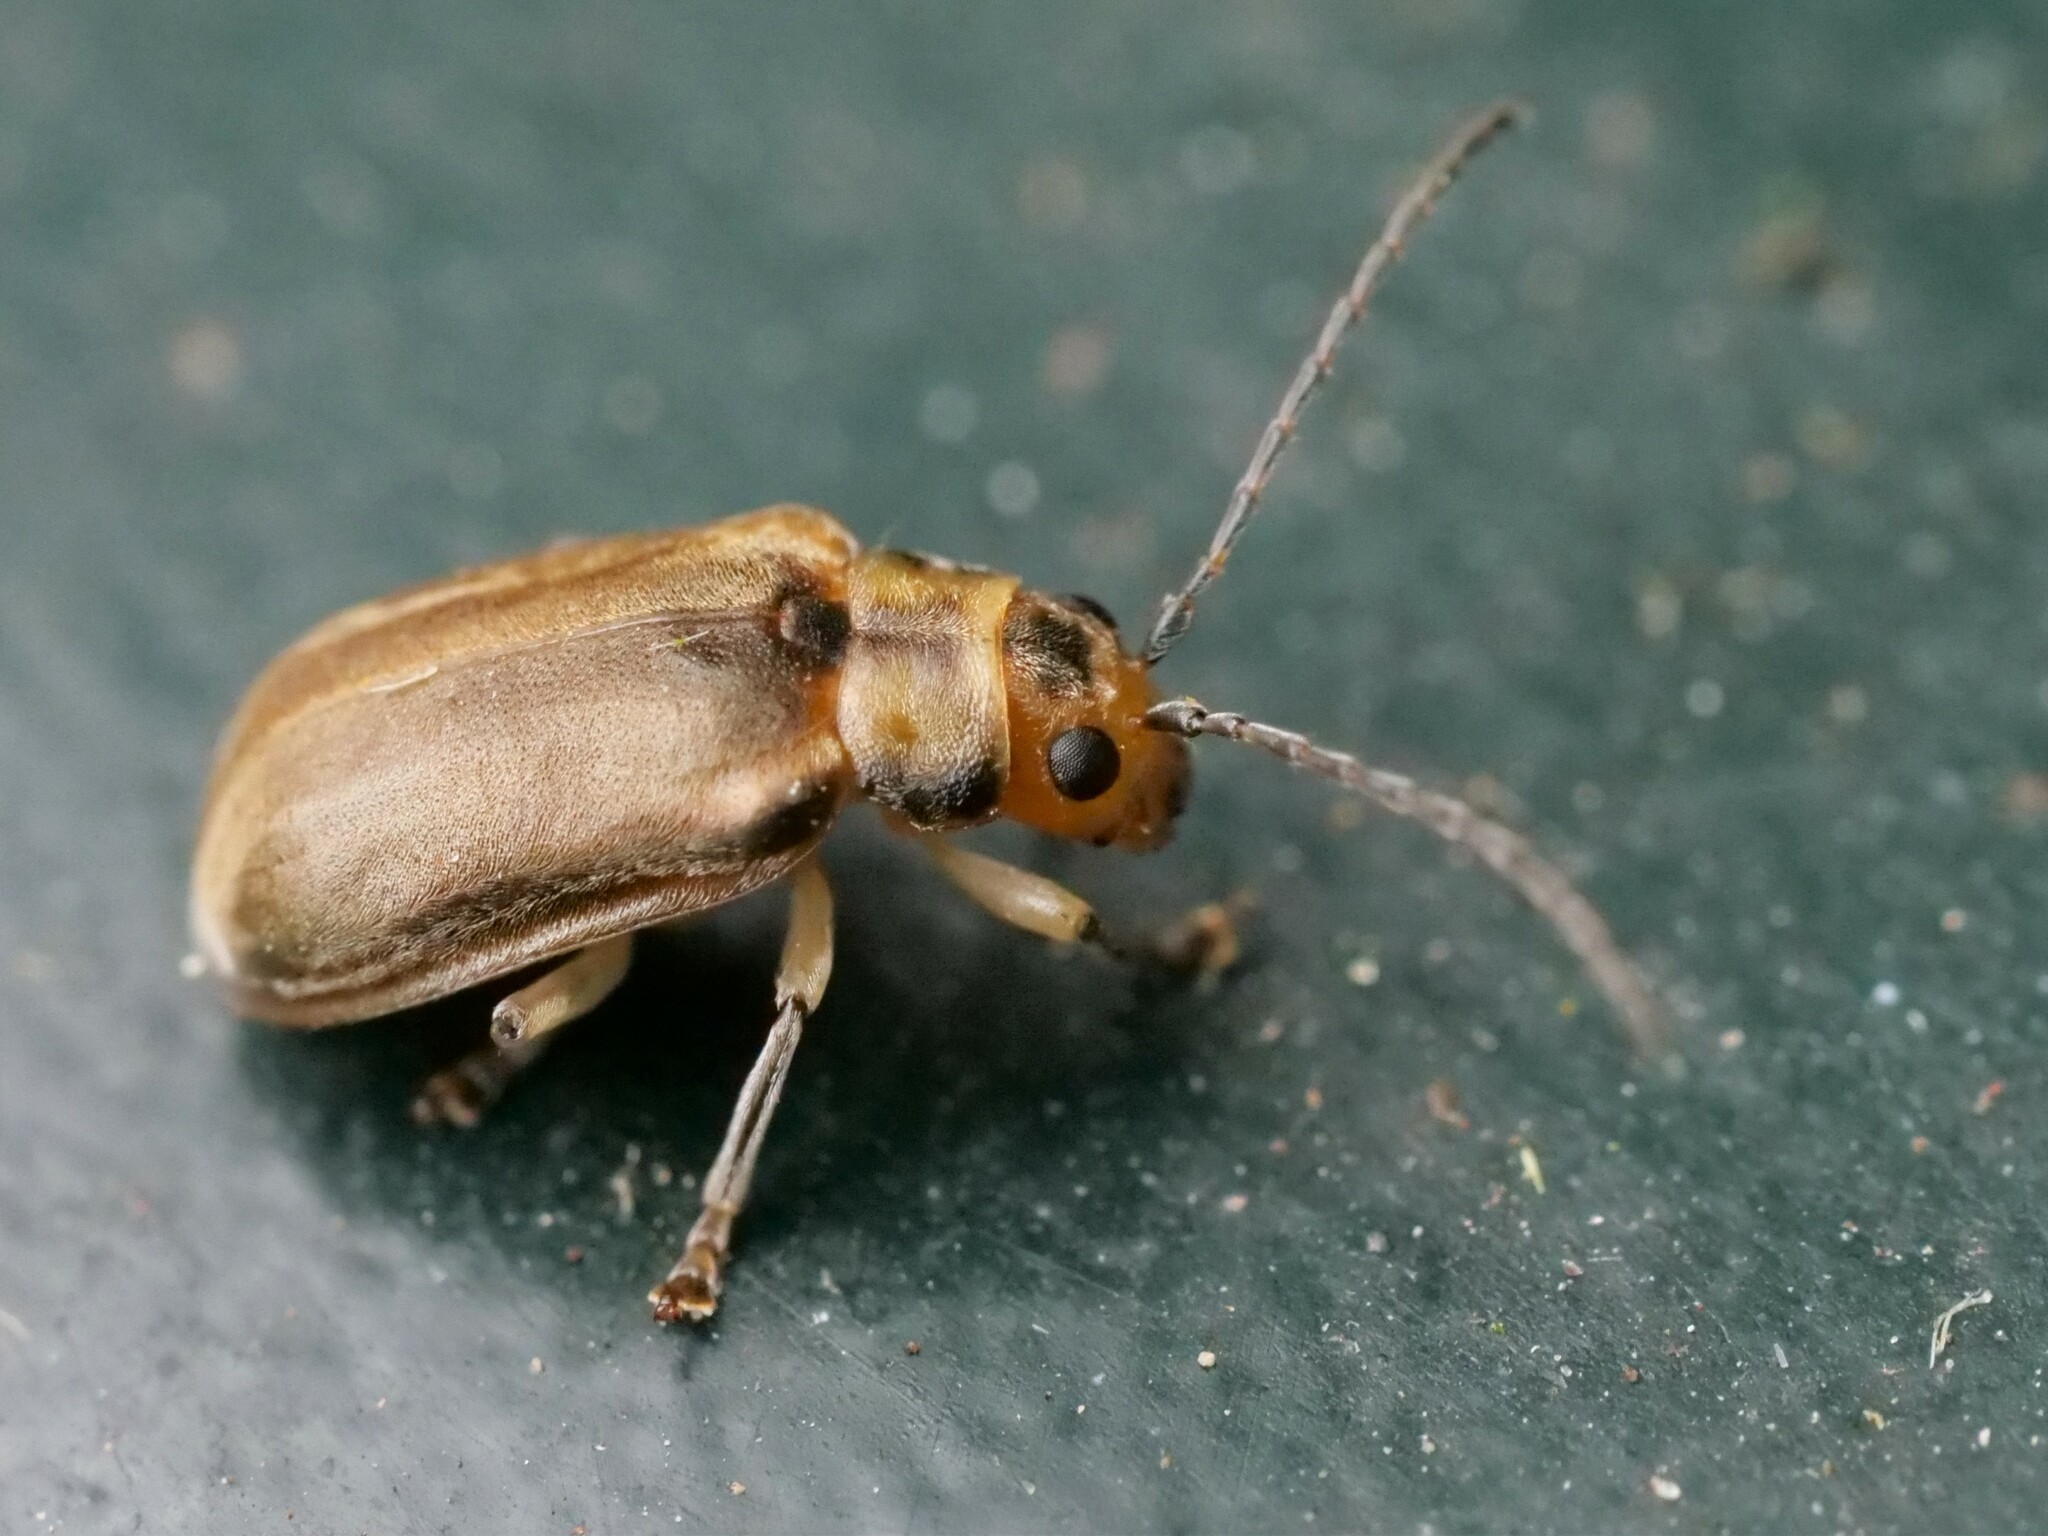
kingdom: Animalia
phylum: Arthropoda
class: Insecta
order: Coleoptera
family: Chrysomelidae
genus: Pyrrhalta
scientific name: Pyrrhalta viburni
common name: Guelder-rose leaf beetle
